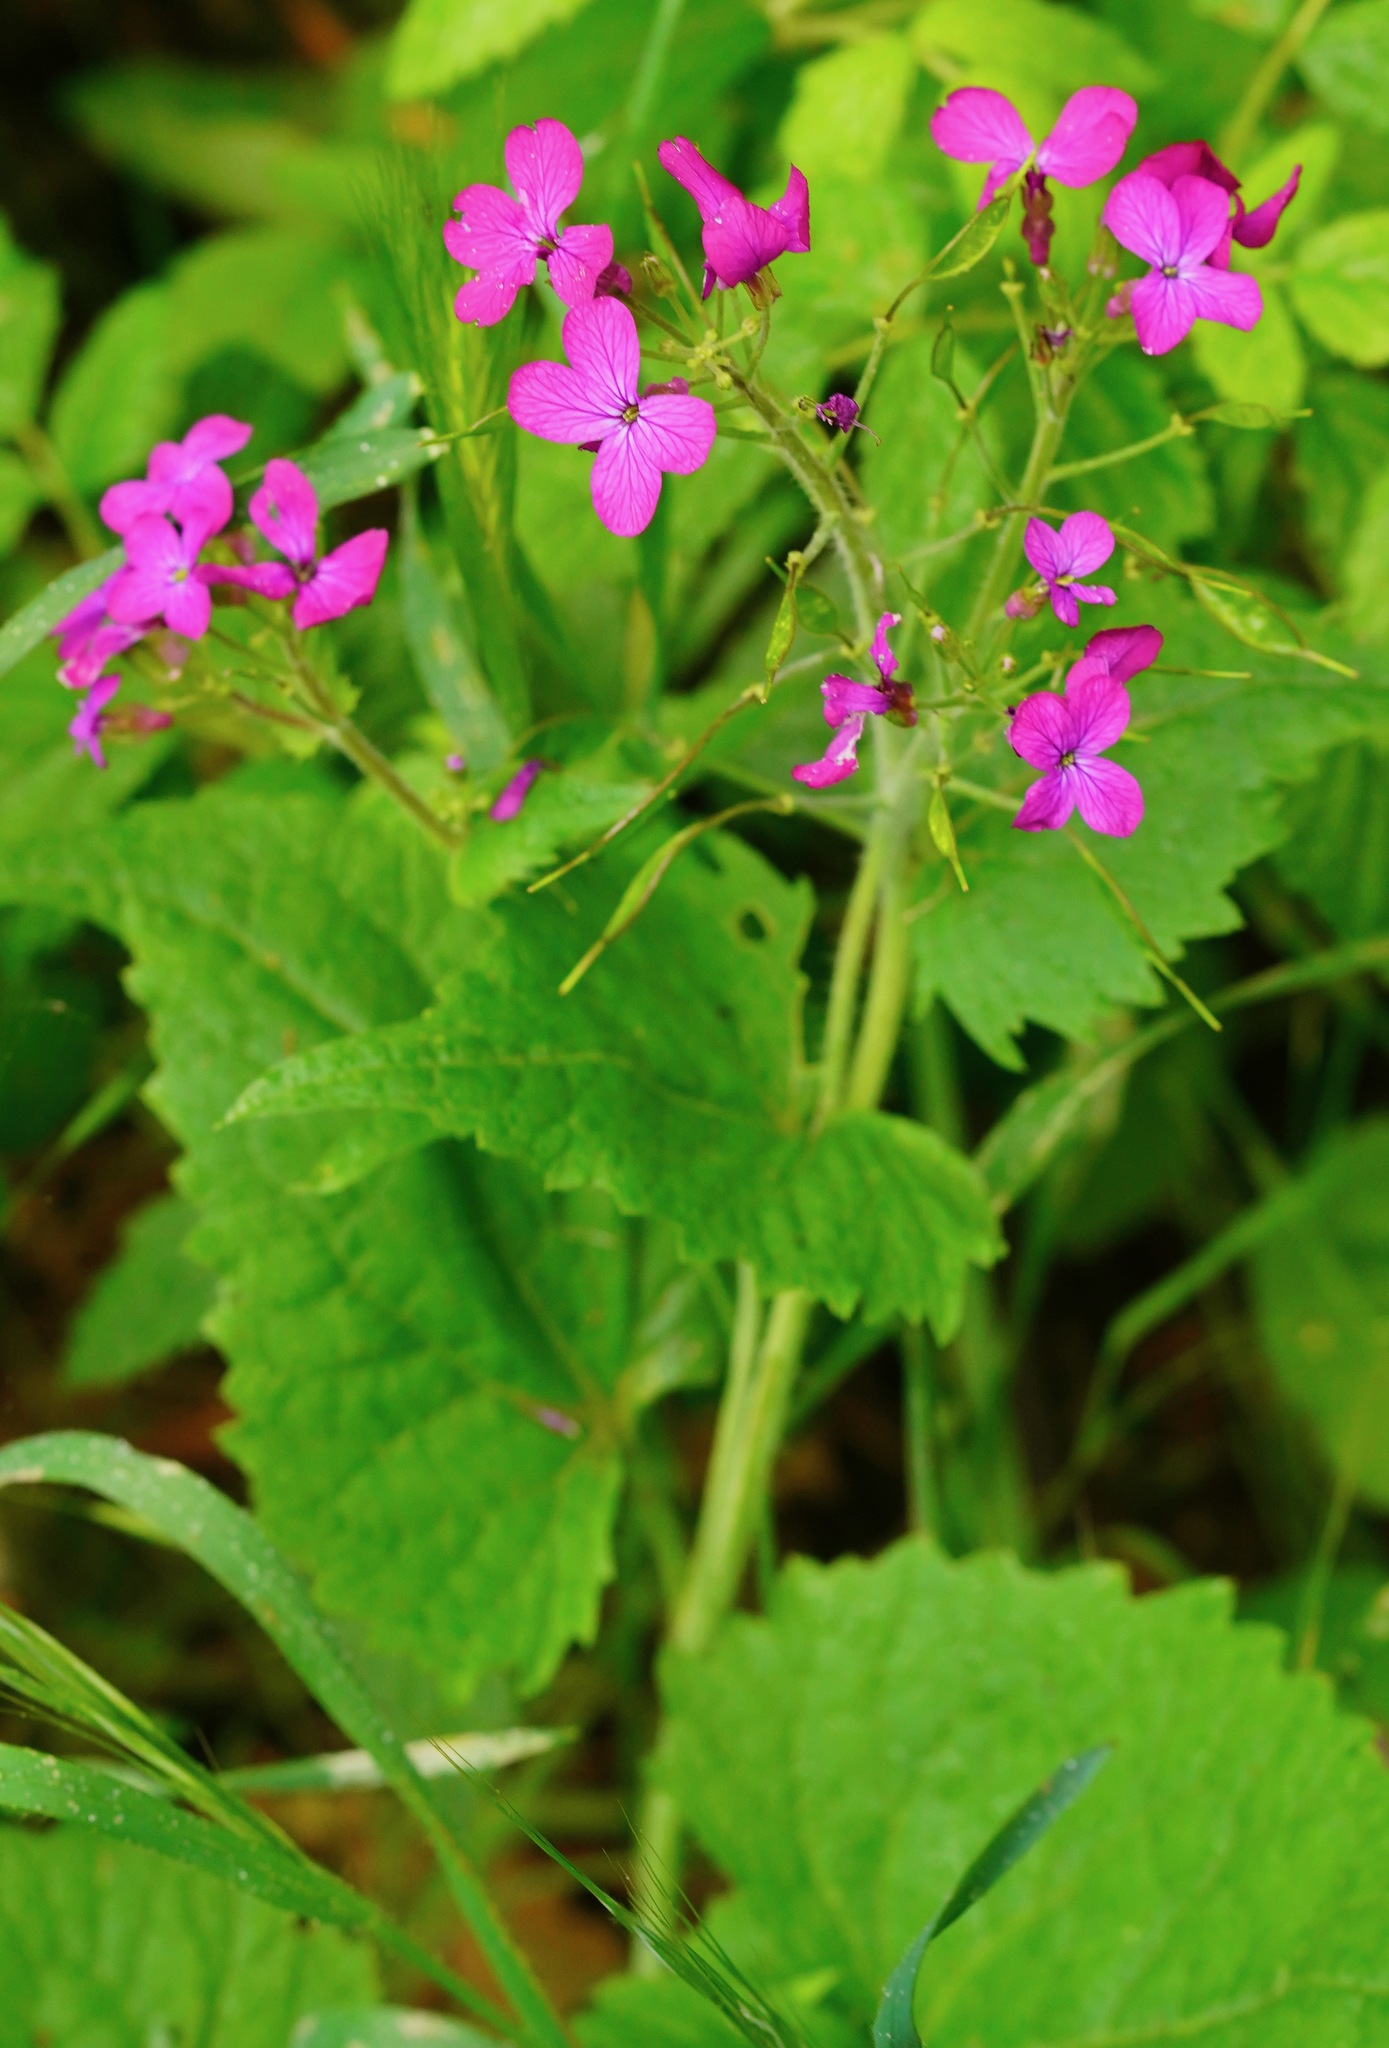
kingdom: Plantae
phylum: Tracheophyta
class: Magnoliopsida
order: Brassicales
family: Brassicaceae
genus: Lunaria
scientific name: Lunaria annua
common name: Honesty
